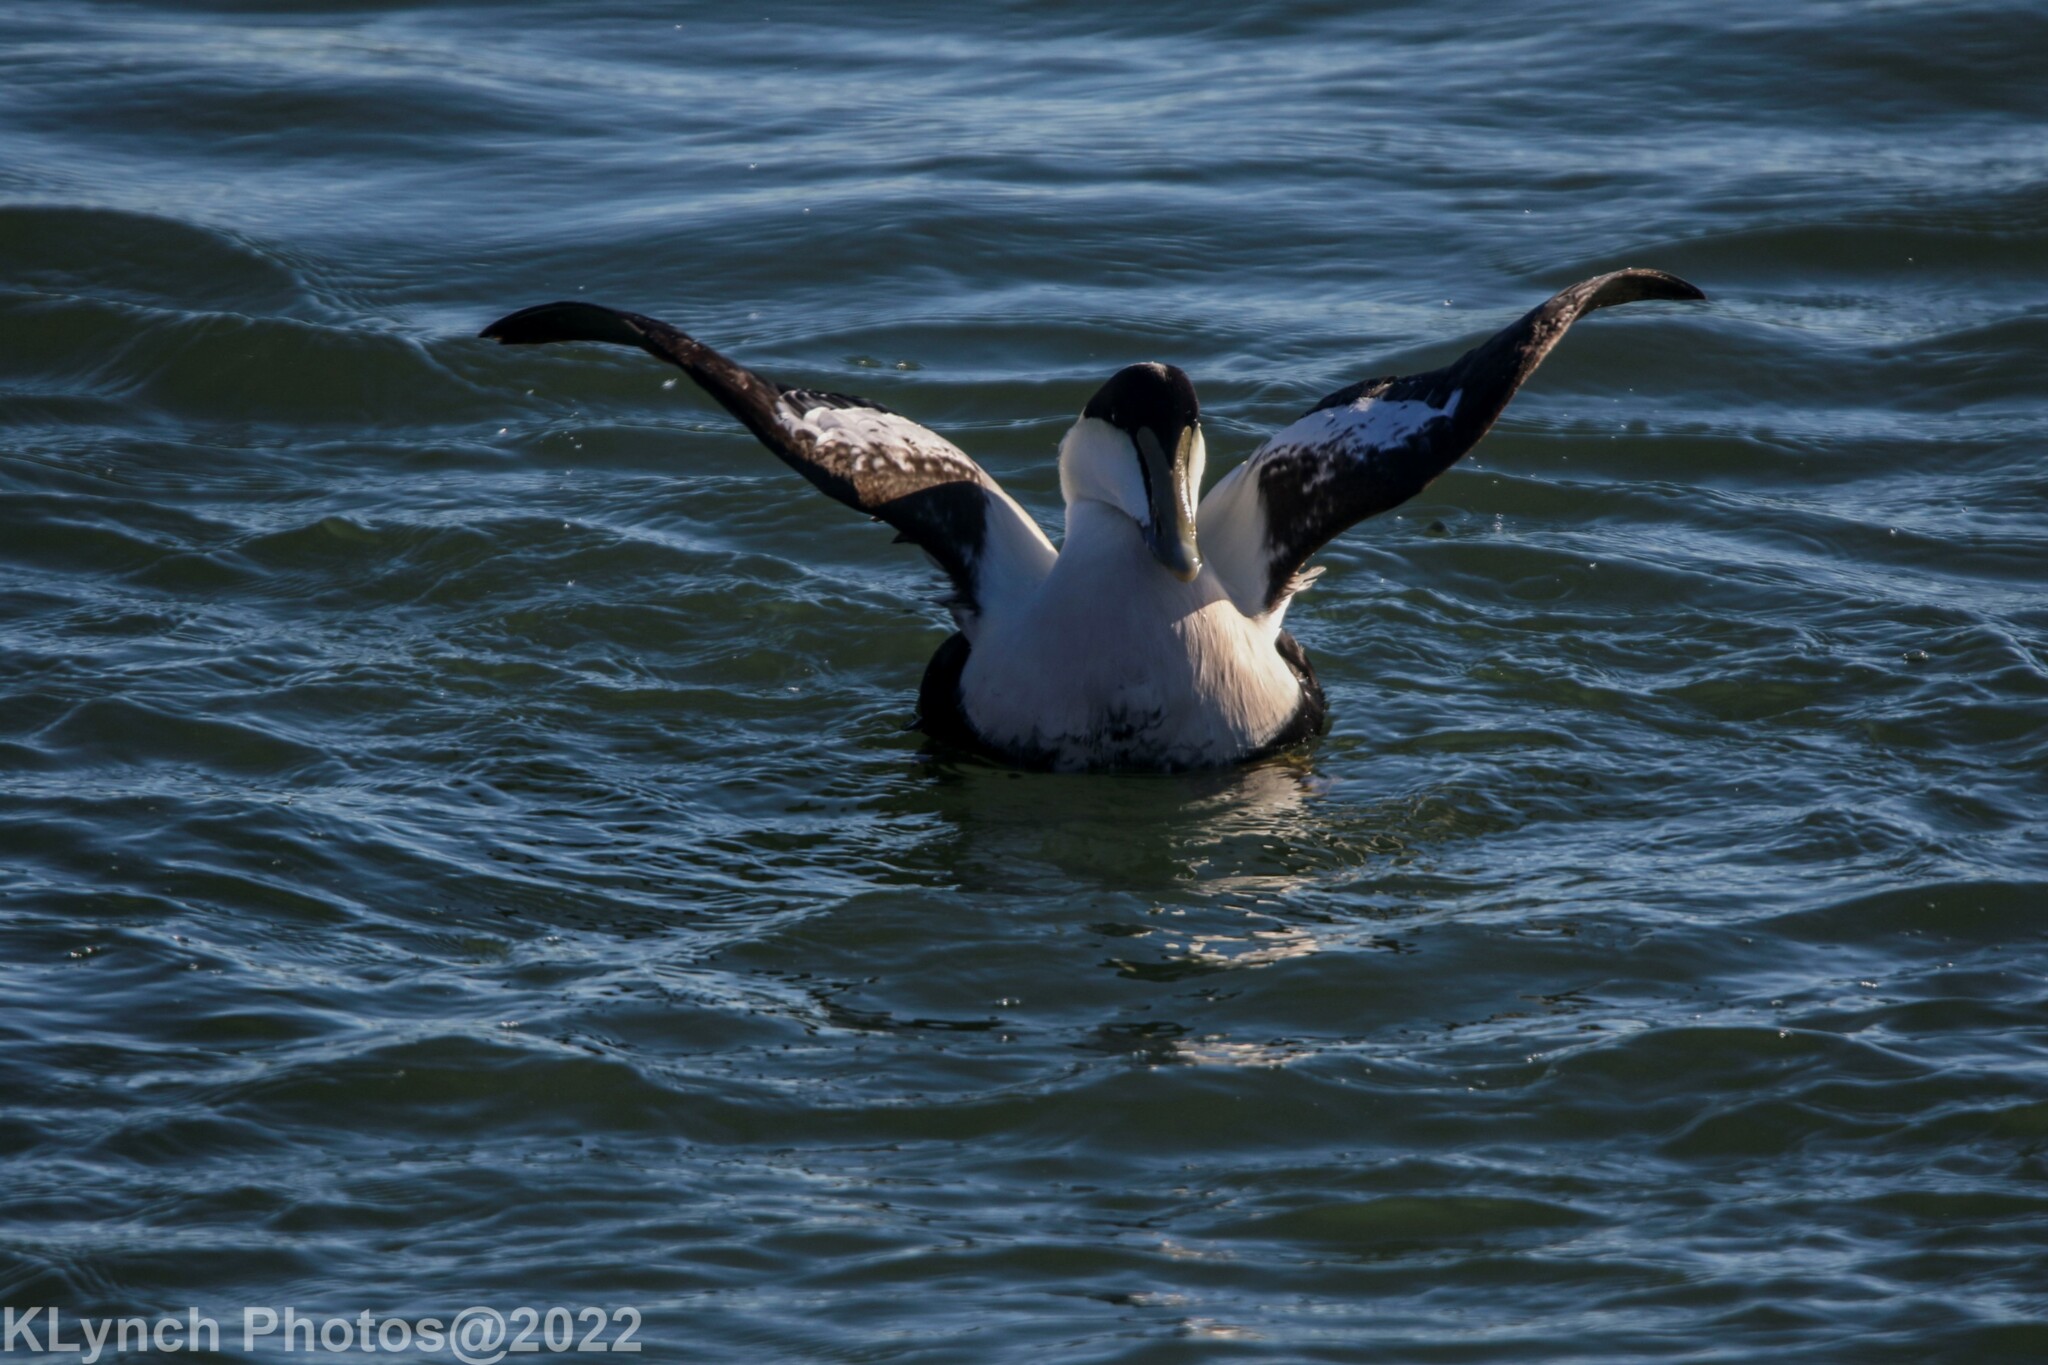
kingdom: Animalia
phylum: Chordata
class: Aves
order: Anseriformes
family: Anatidae
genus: Somateria
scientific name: Somateria mollissima
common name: Common eider
